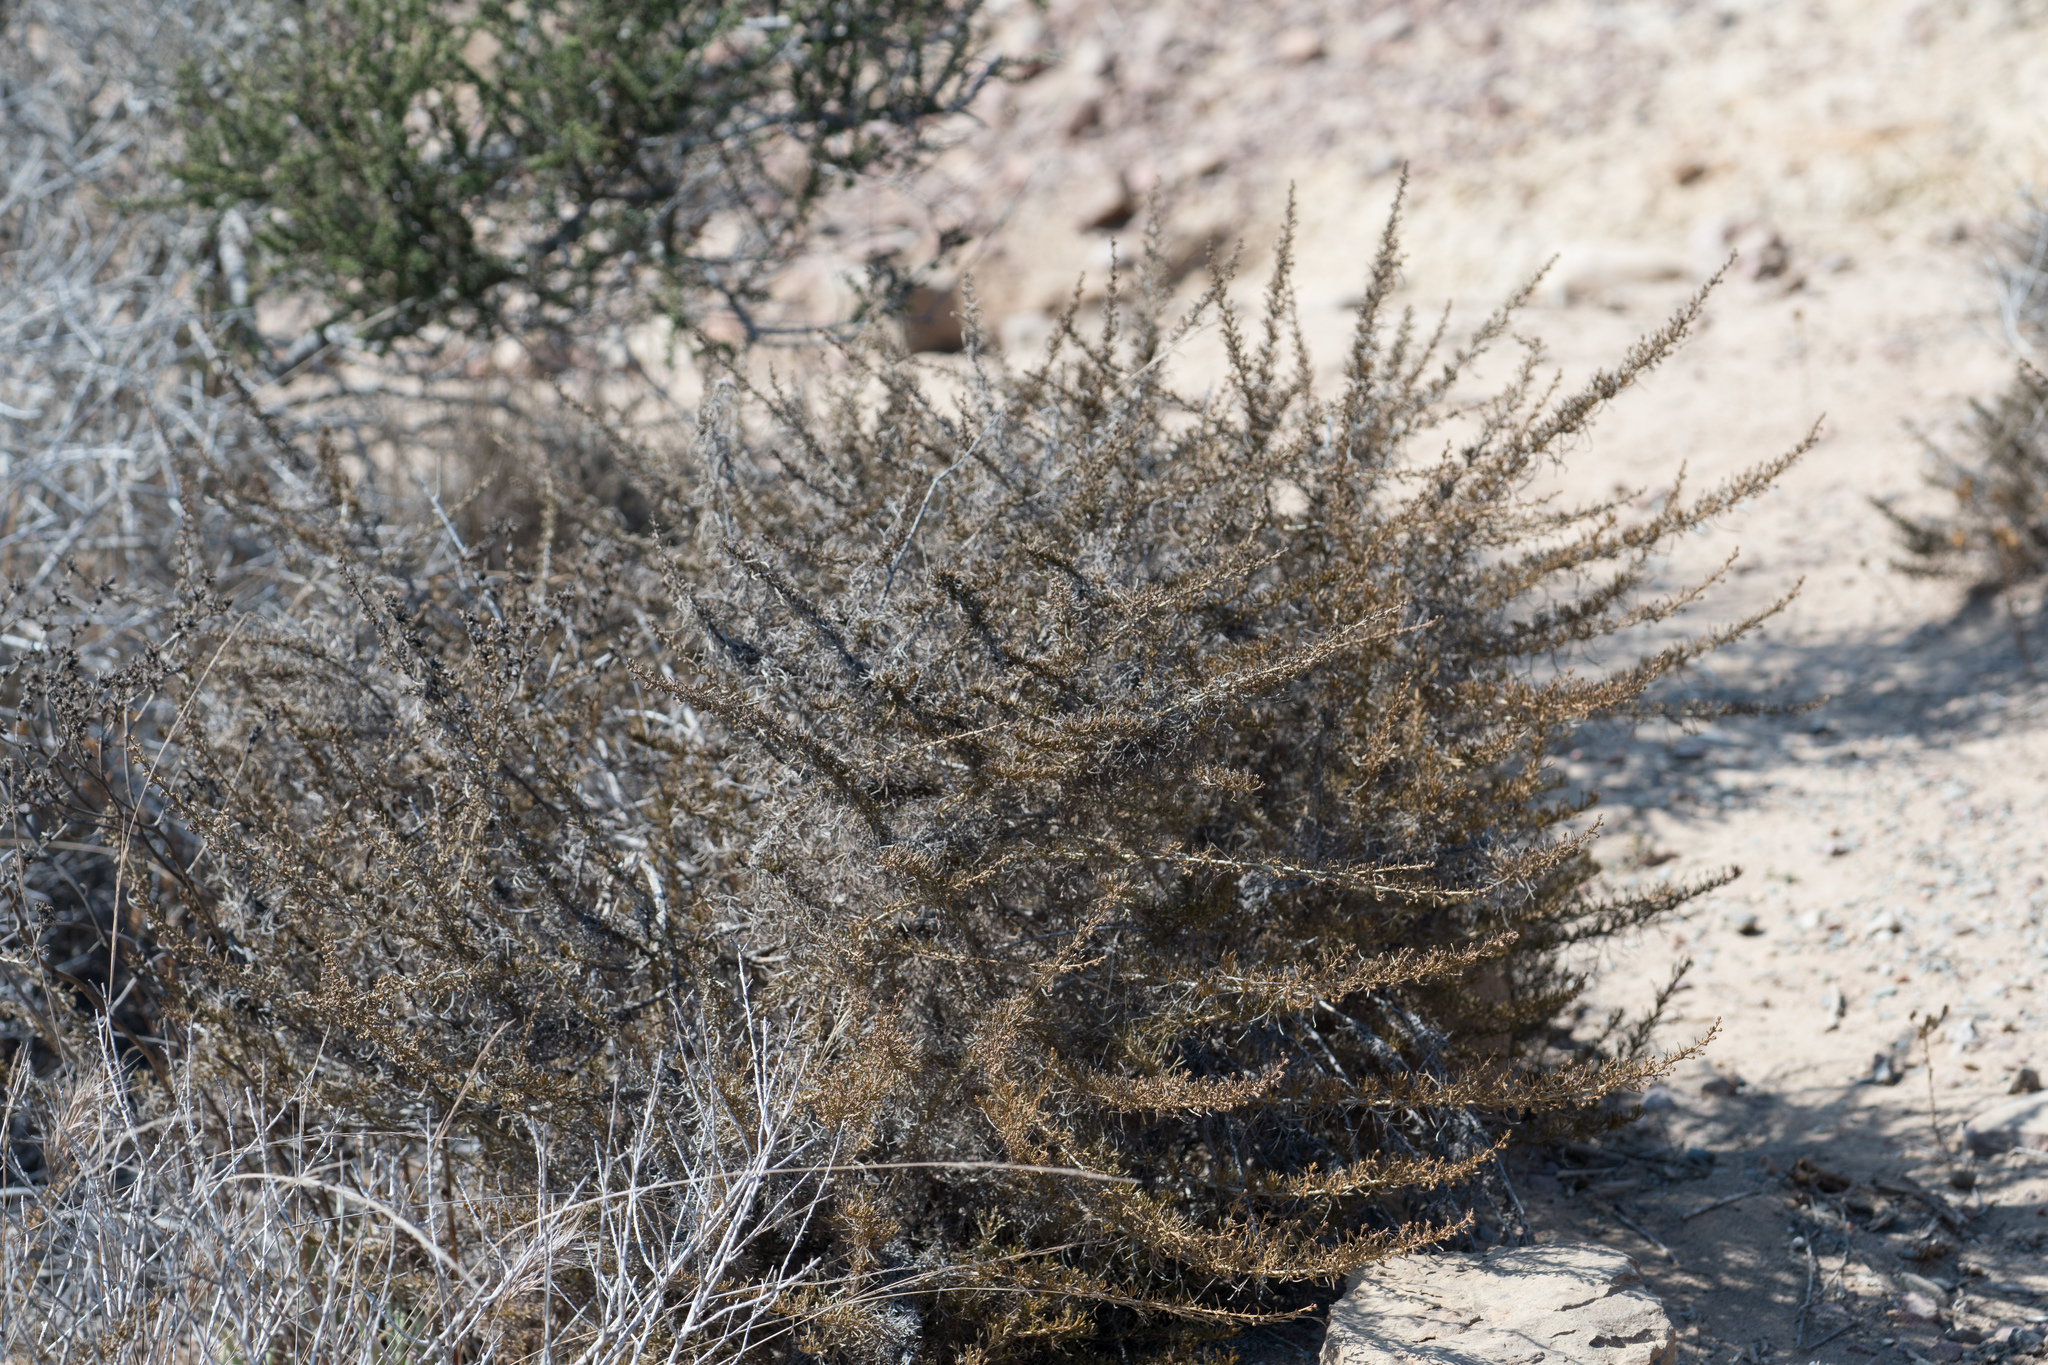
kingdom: Plantae
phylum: Tracheophyta
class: Magnoliopsida
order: Asterales
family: Asteraceae
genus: Artemisia
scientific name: Artemisia californica
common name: California sagebrush
